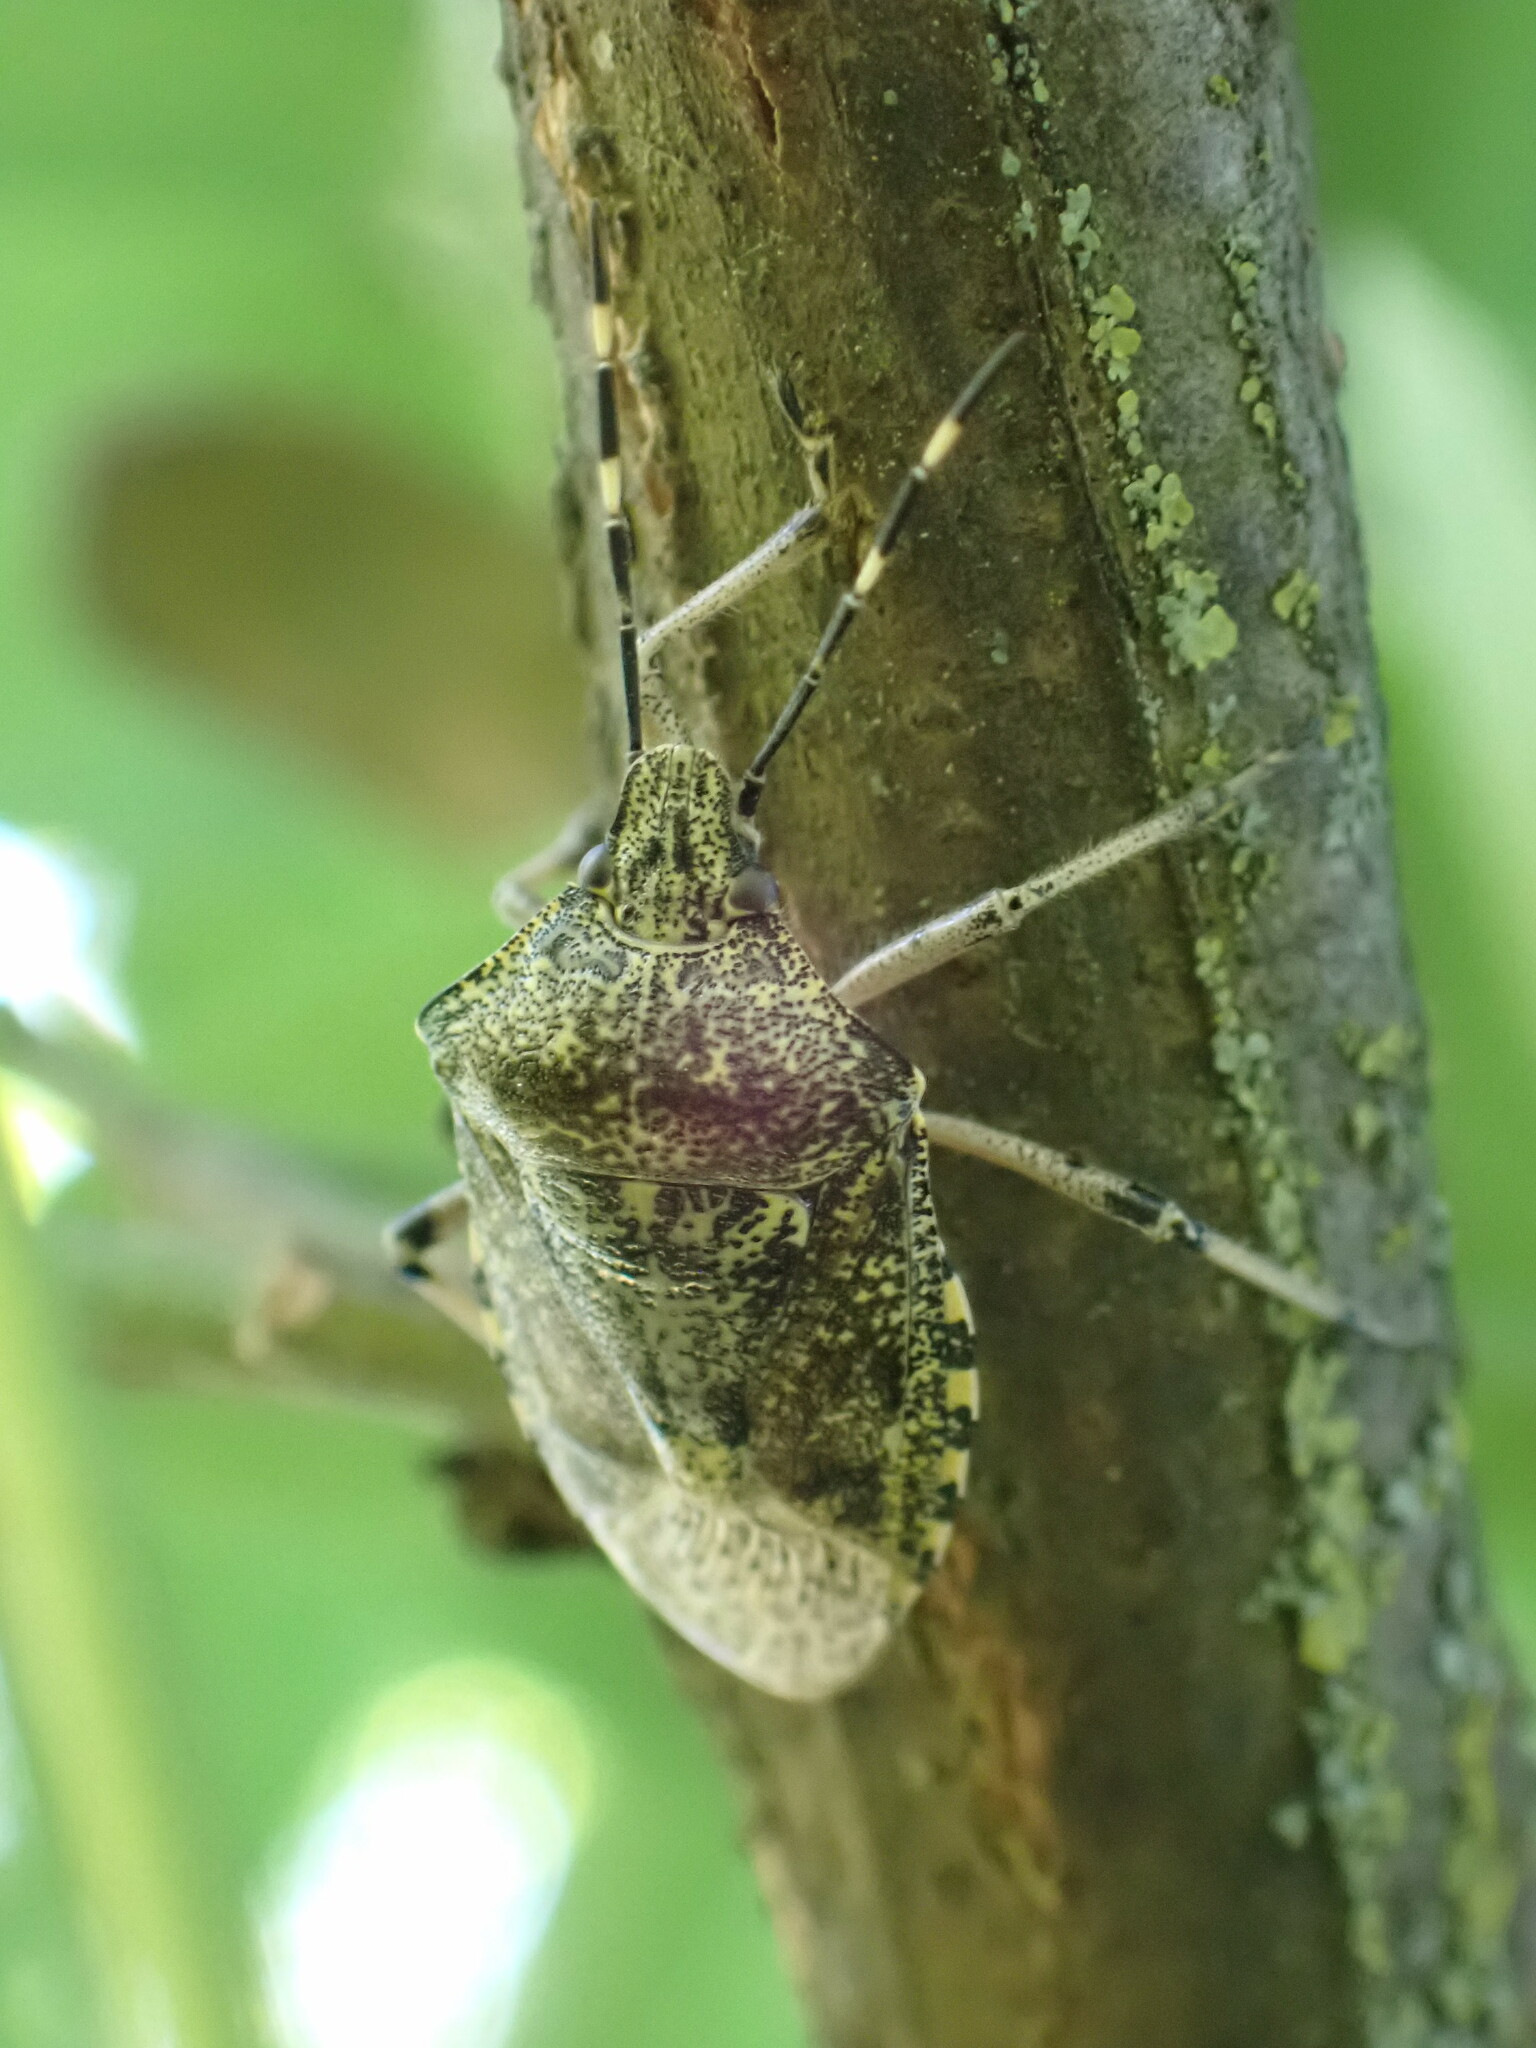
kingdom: Animalia
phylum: Arthropoda
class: Insecta
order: Hemiptera
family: Pentatomidae
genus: Rhaphigaster
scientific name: Rhaphigaster nebulosa
